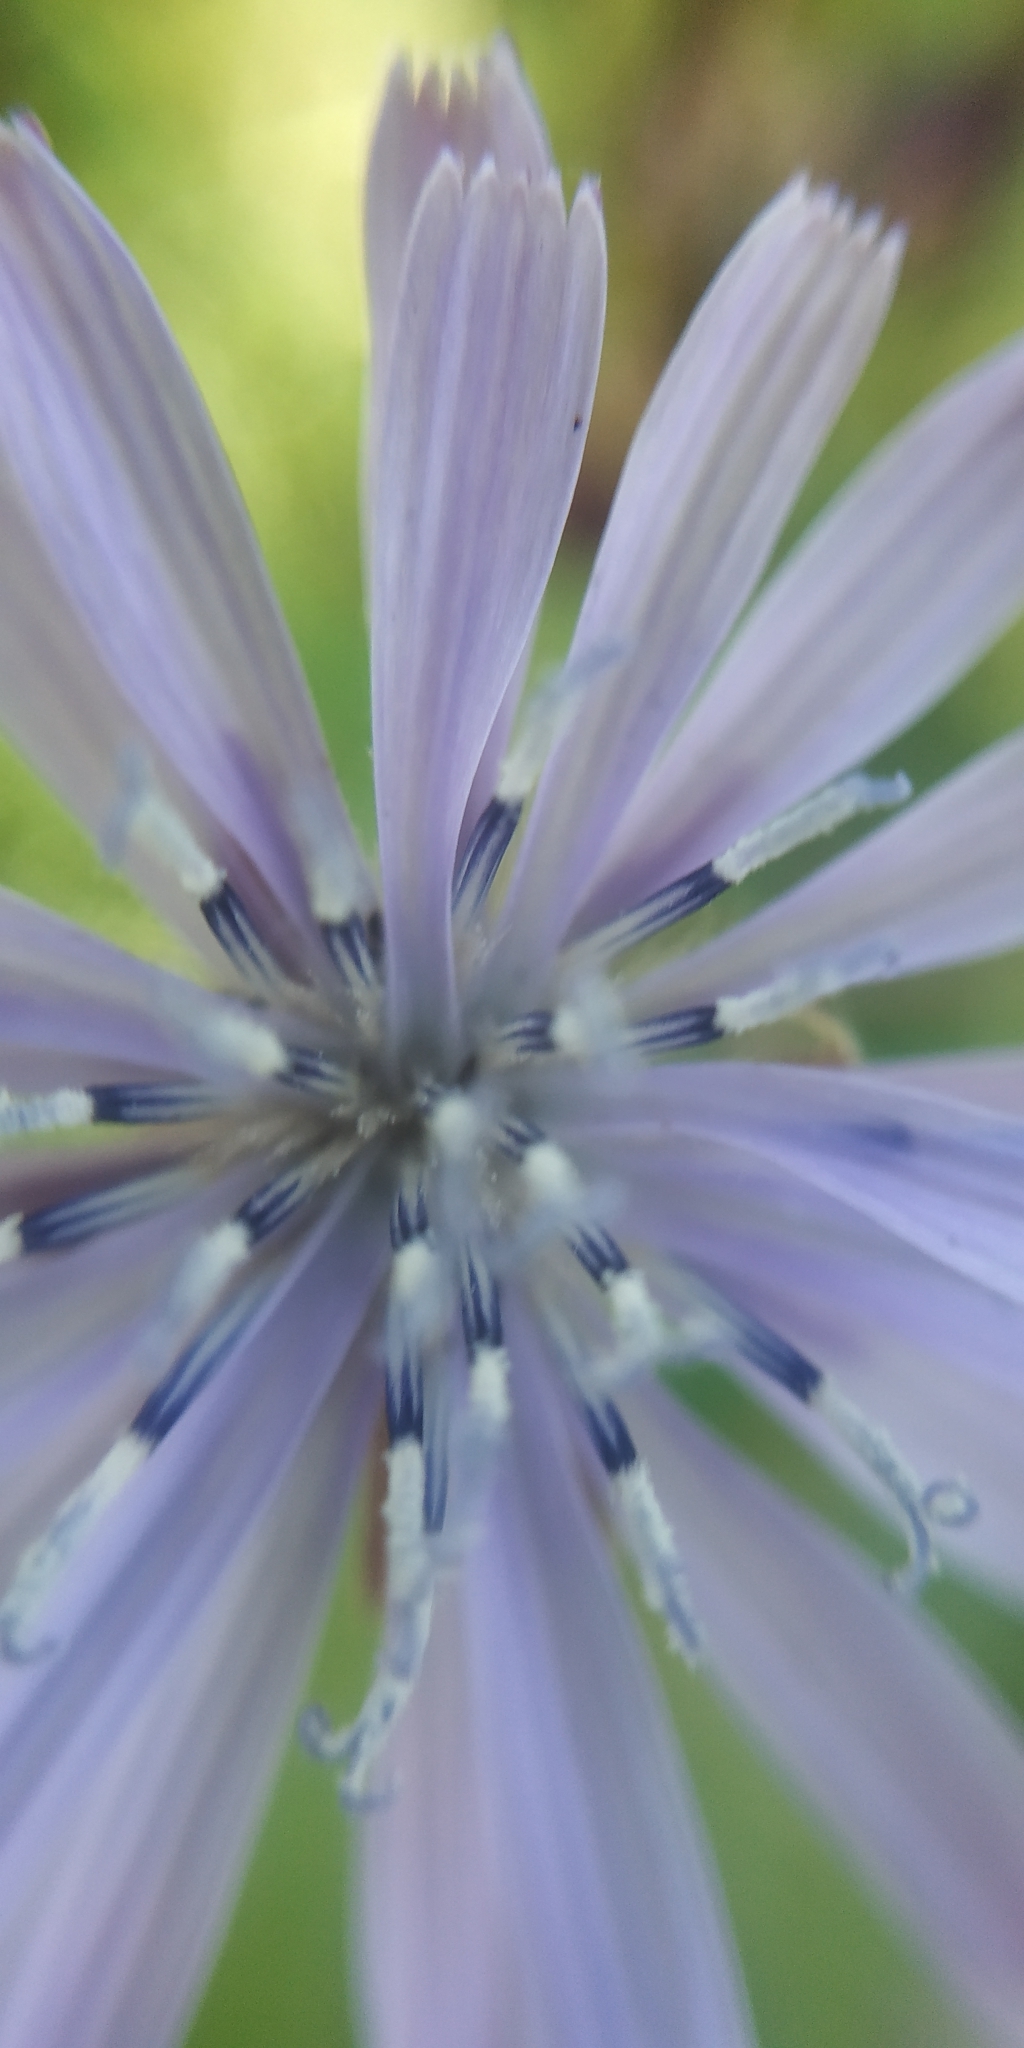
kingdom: Plantae
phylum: Tracheophyta
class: Magnoliopsida
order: Asterales
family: Asteraceae
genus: Lactuca
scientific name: Lactuca sibirica
